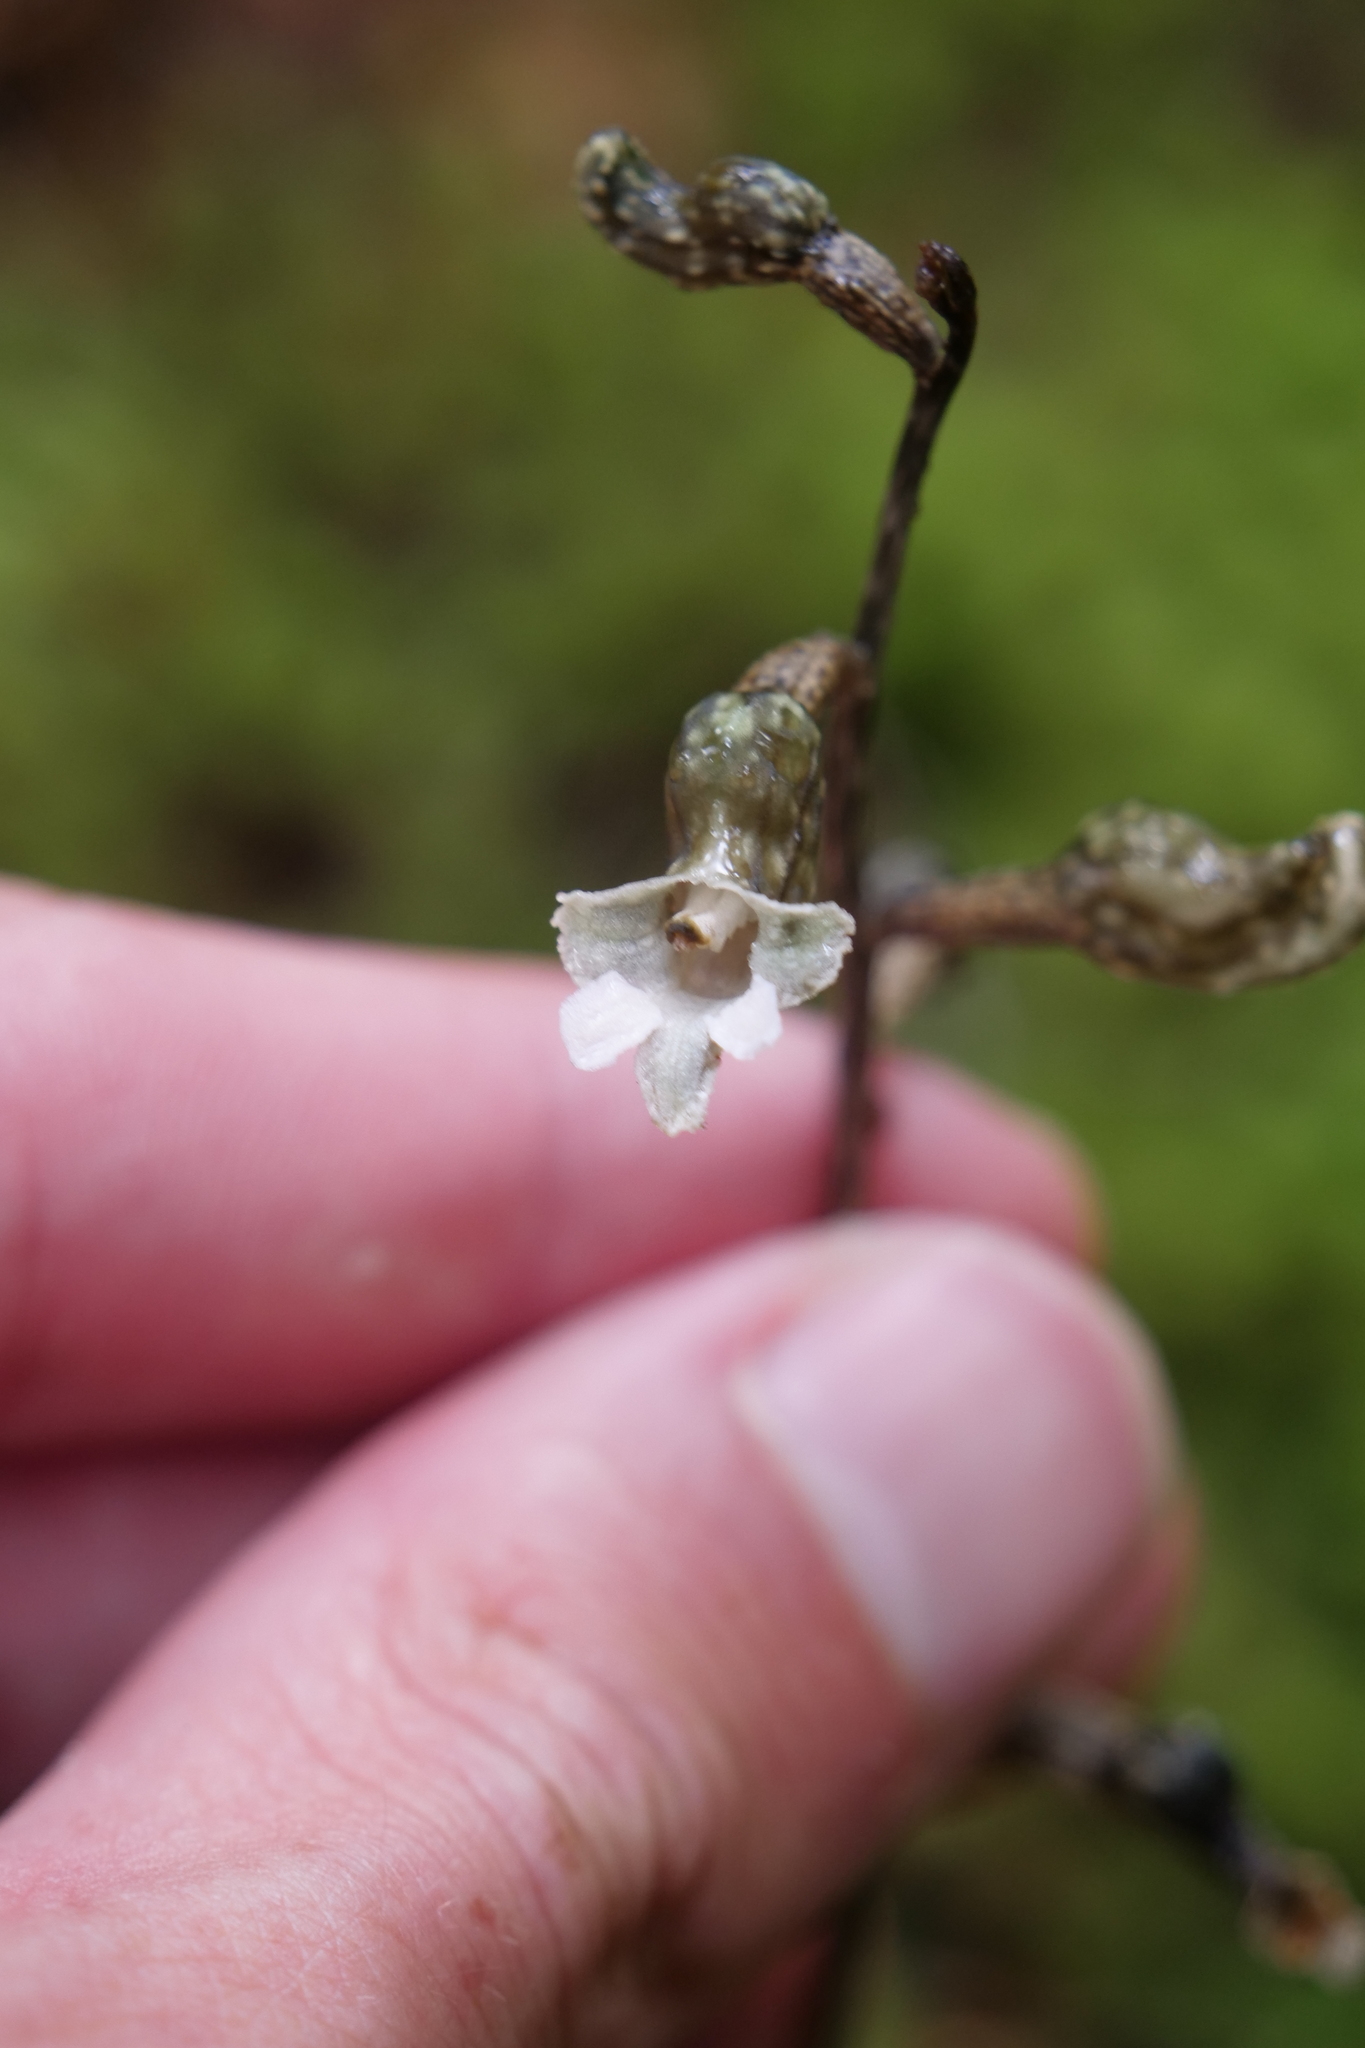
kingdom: Plantae
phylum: Tracheophyta
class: Liliopsida
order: Asparagales
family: Orchidaceae
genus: Gastrodia
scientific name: Gastrodia cunninghamii
